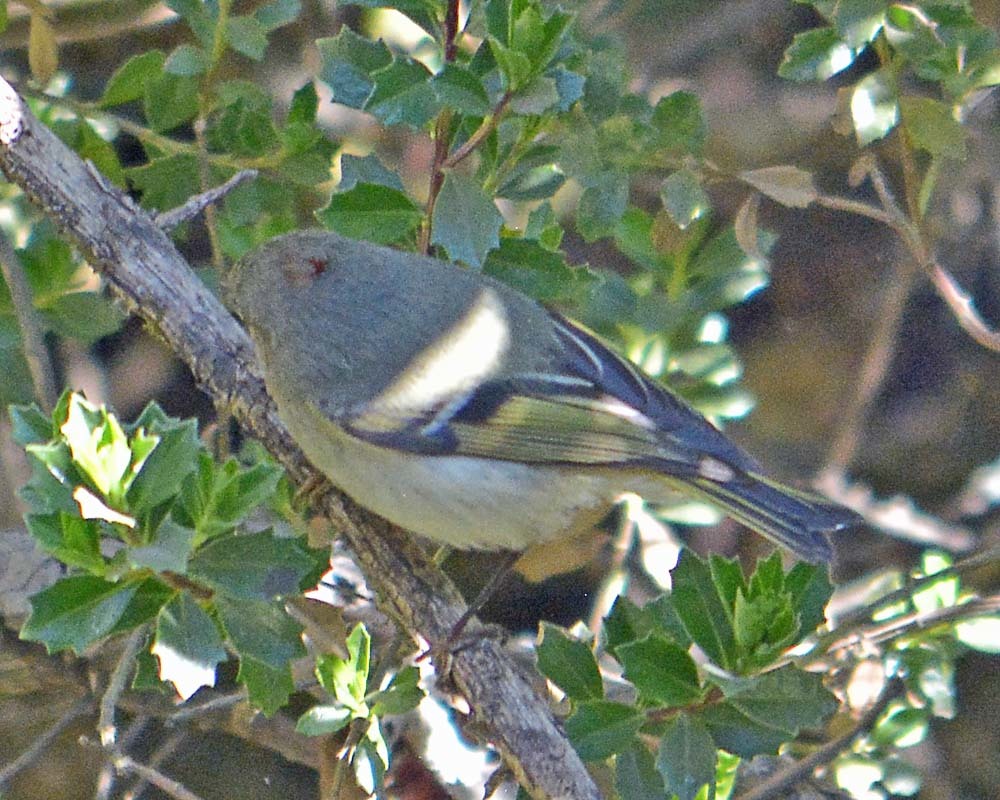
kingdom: Animalia
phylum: Chordata
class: Aves
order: Passeriformes
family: Regulidae
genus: Regulus
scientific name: Regulus calendula
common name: Ruby-crowned kinglet
